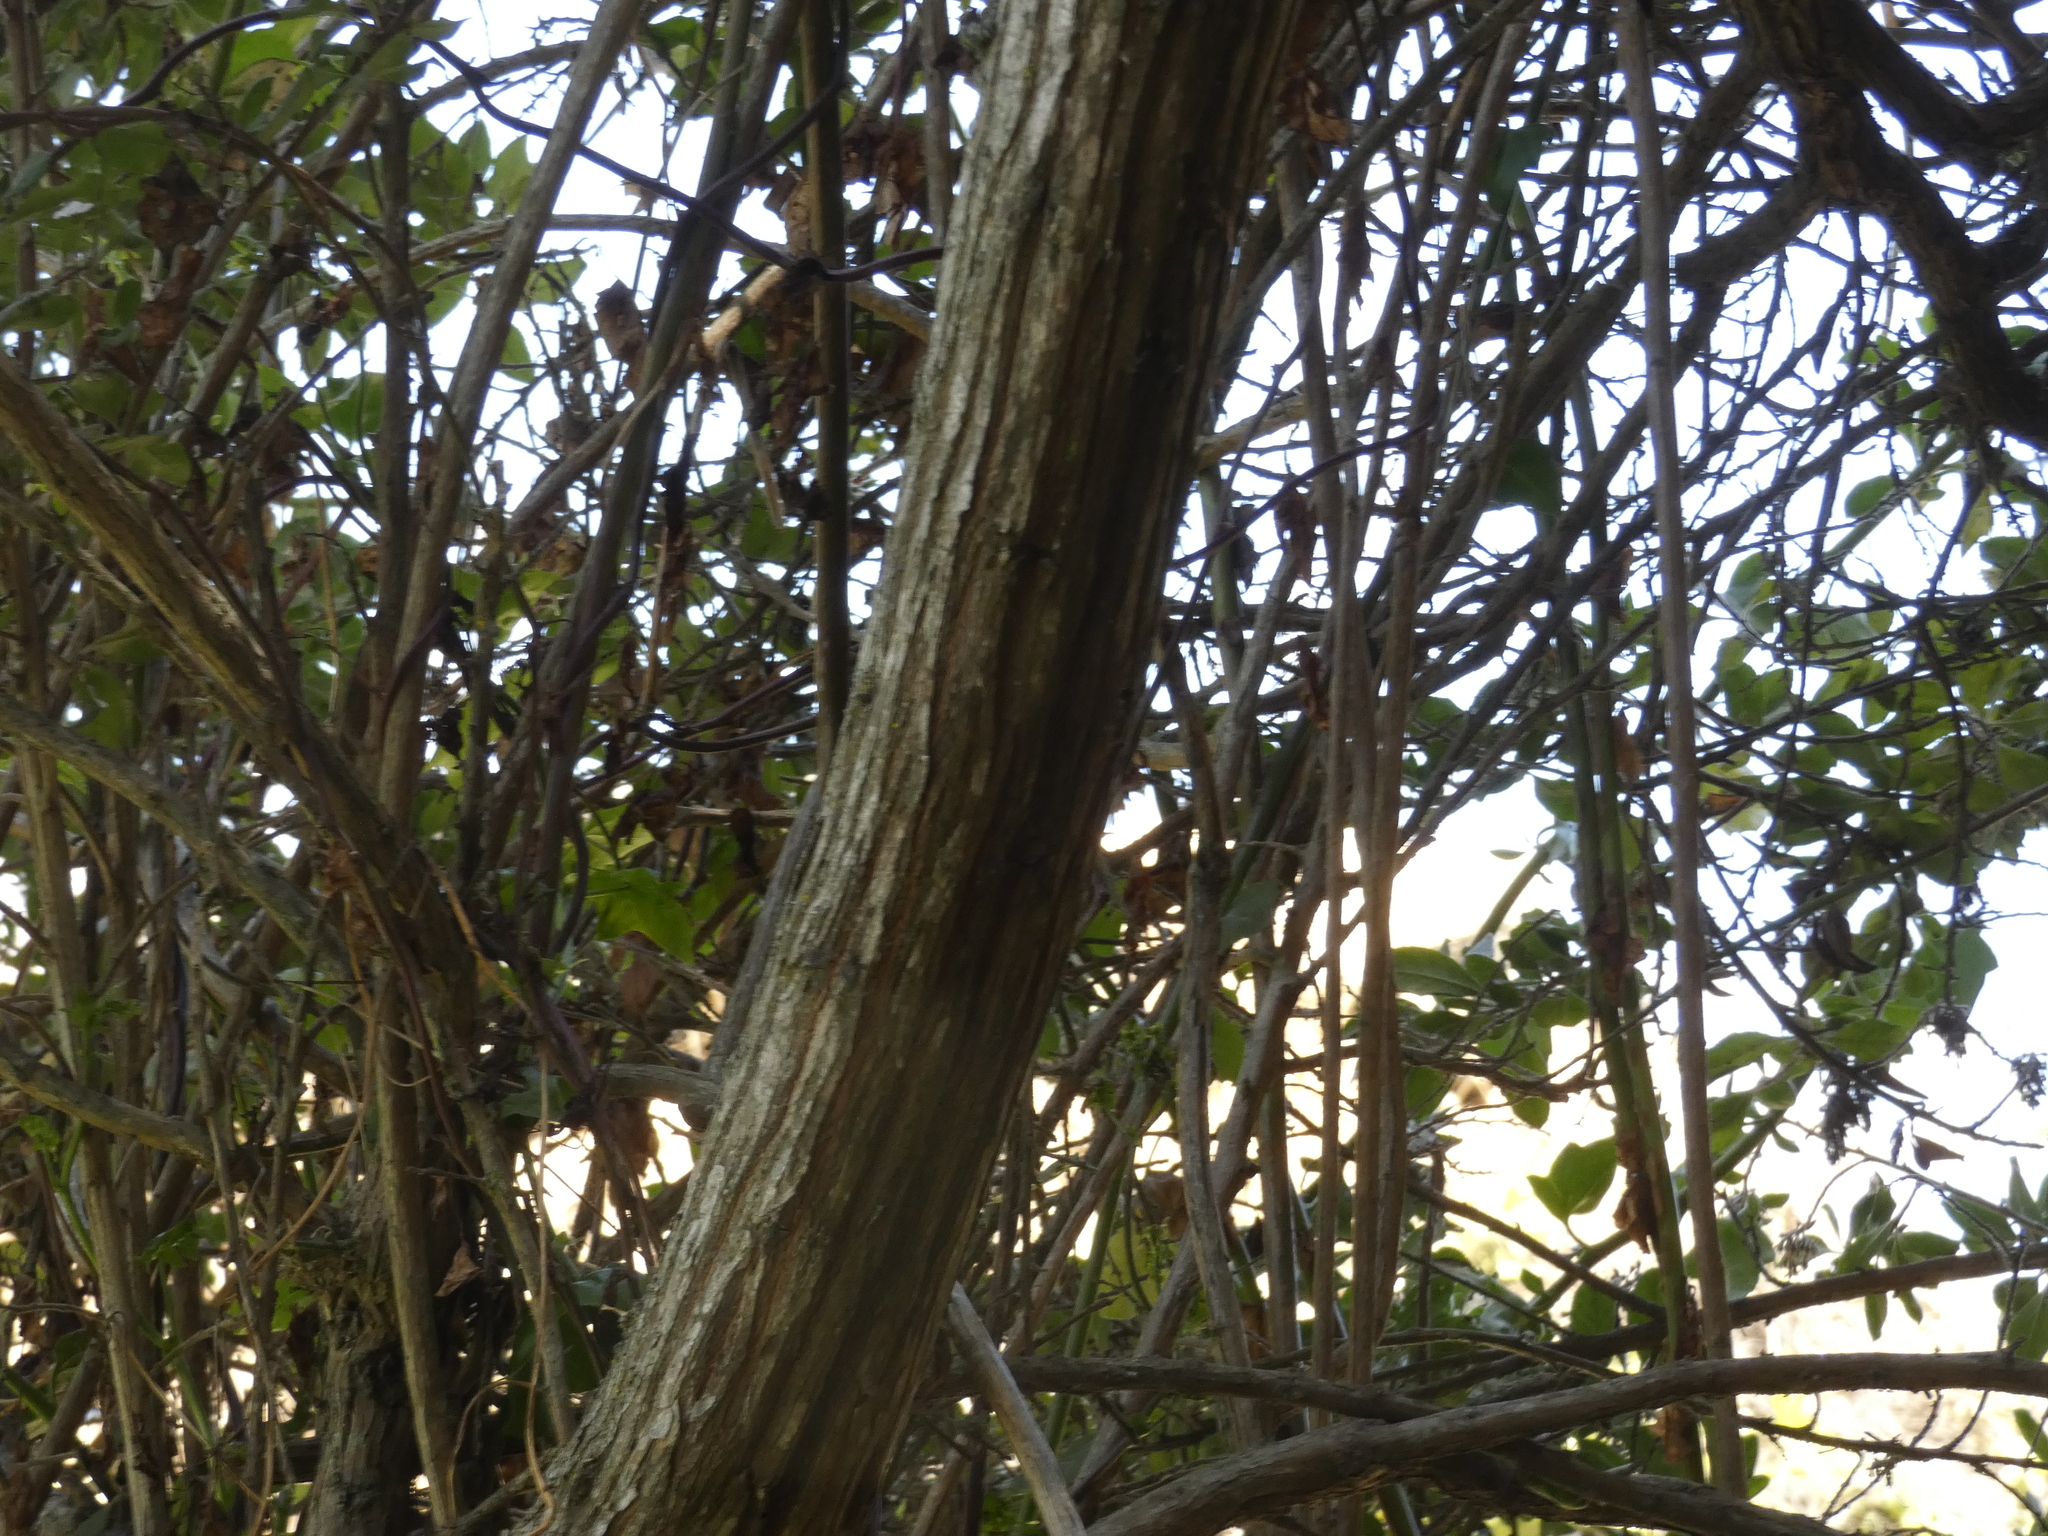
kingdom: Plantae
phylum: Tracheophyta
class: Magnoliopsida
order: Escalloniales
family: Escalloniaceae
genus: Escallonia
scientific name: Escallonia revoluta
